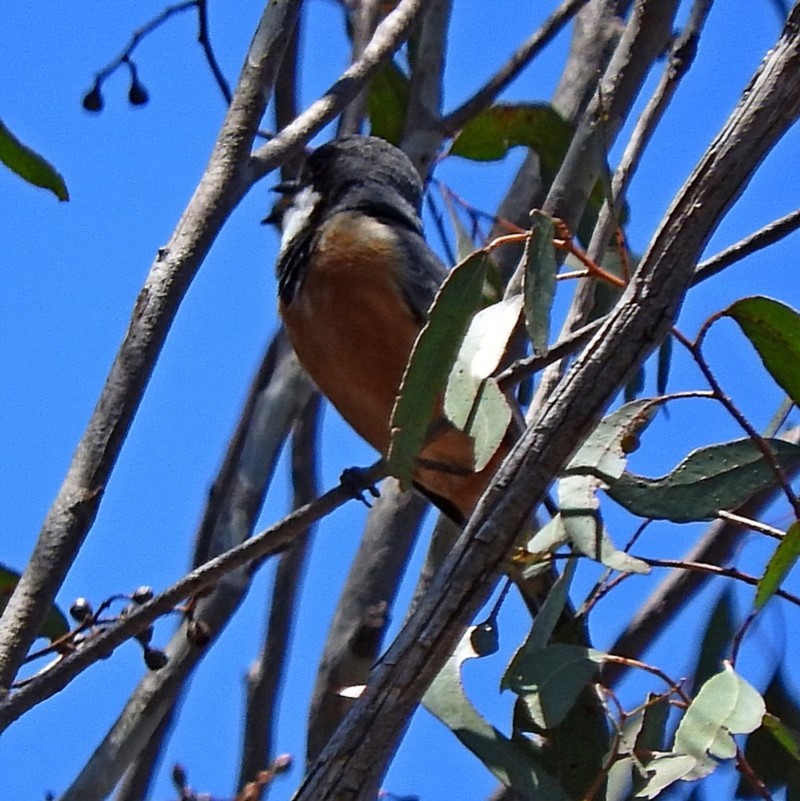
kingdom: Animalia
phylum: Chordata
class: Aves
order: Passeriformes
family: Pachycephalidae
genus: Pachycephala
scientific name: Pachycephala rufiventris
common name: Rufous whistler
